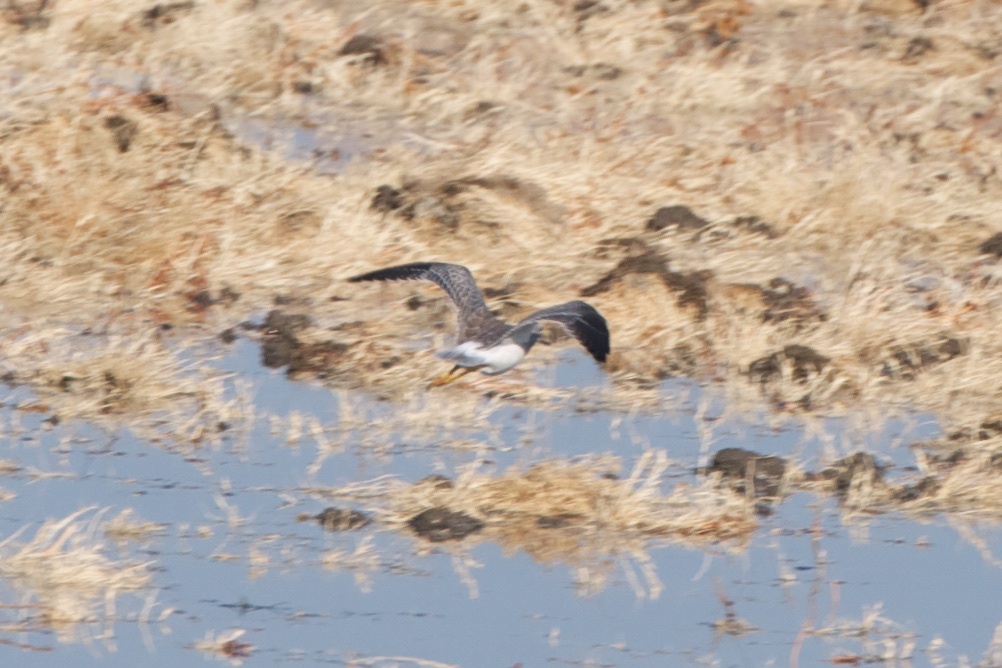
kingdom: Animalia
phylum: Chordata
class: Aves
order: Charadriiformes
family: Scolopacidae
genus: Tringa
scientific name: Tringa melanoleuca
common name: Greater yellowlegs
